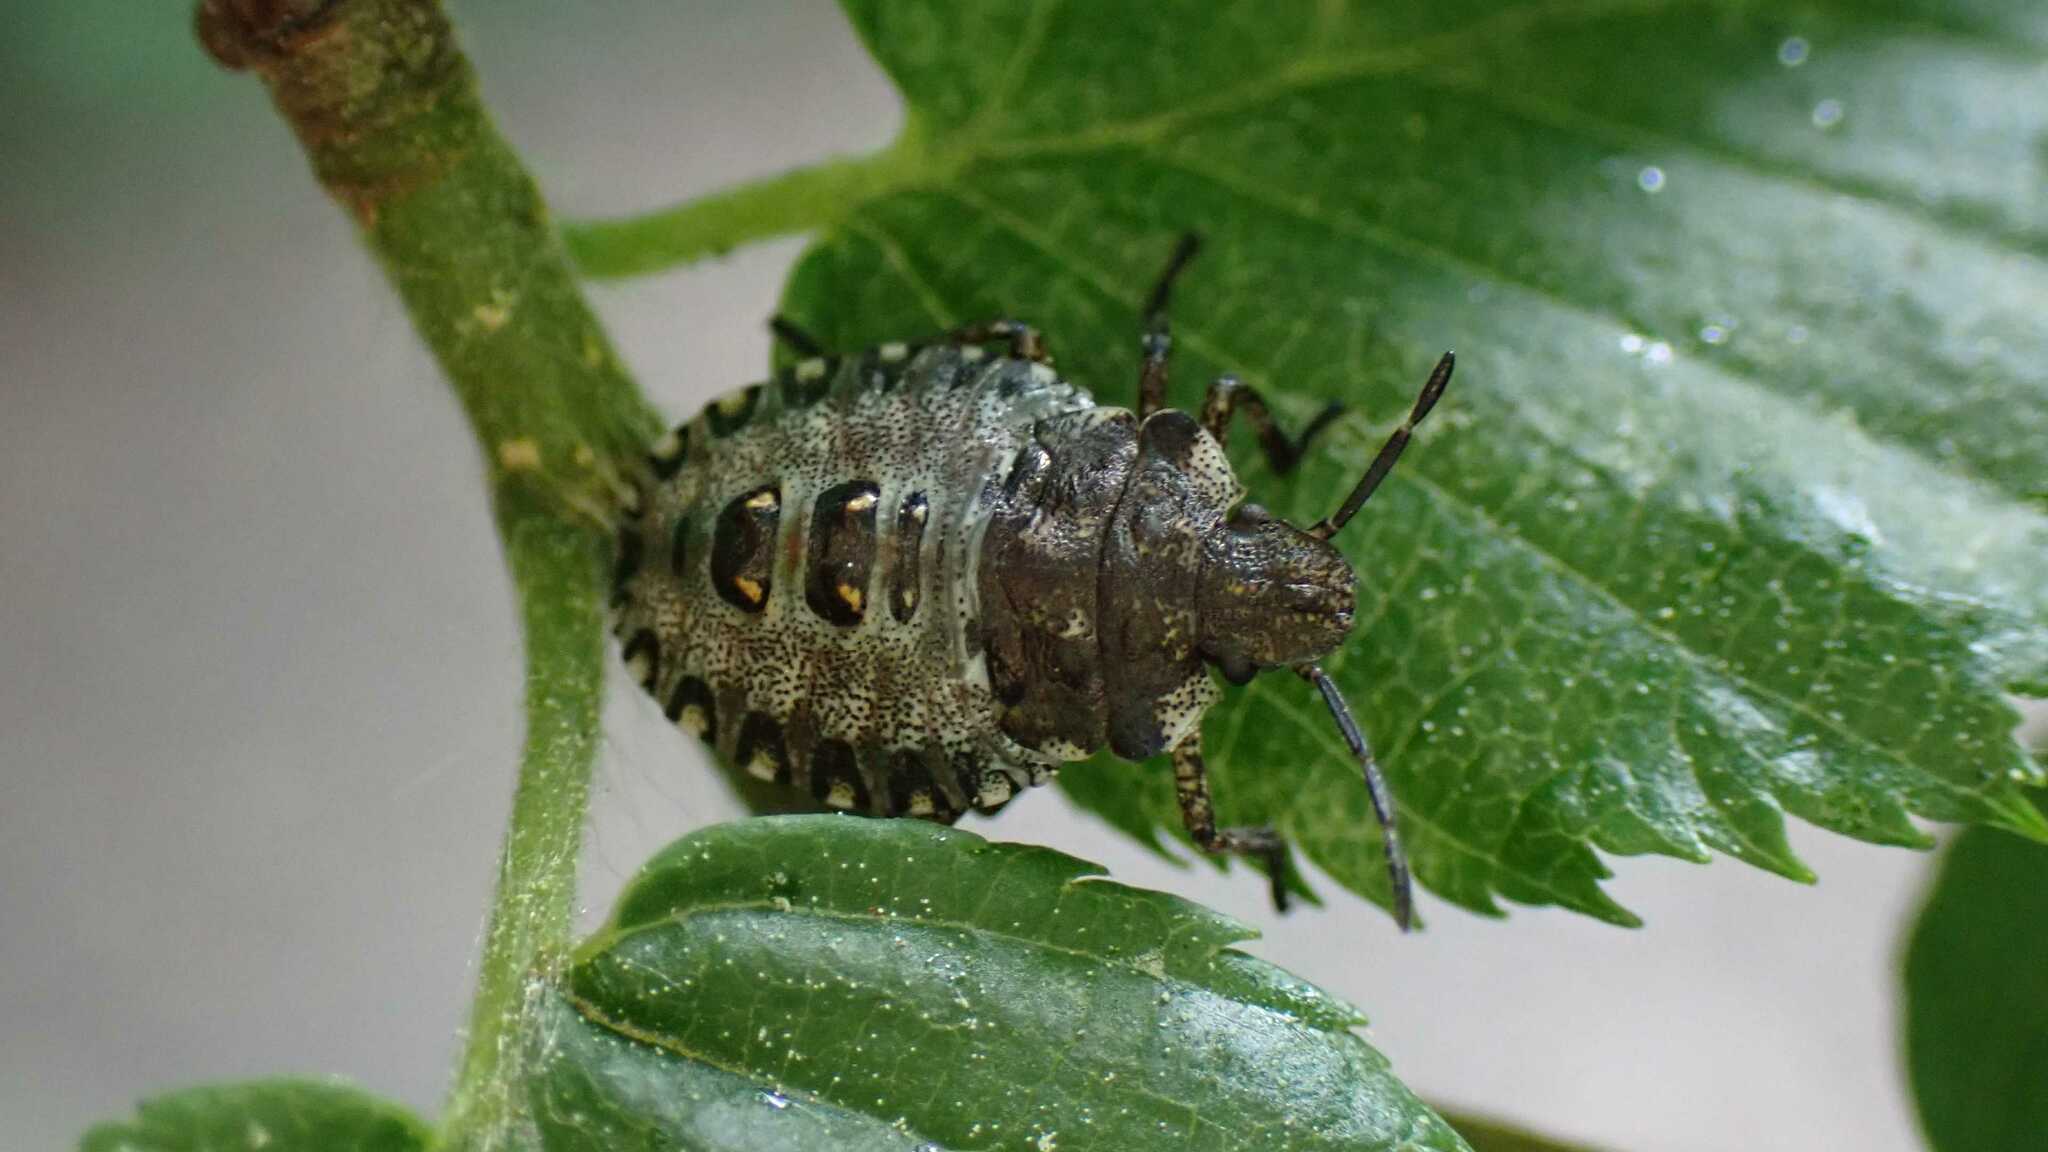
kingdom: Animalia
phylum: Arthropoda
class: Insecta
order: Hemiptera
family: Pentatomidae
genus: Pentatoma
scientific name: Pentatoma rufipes
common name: Forest bug
